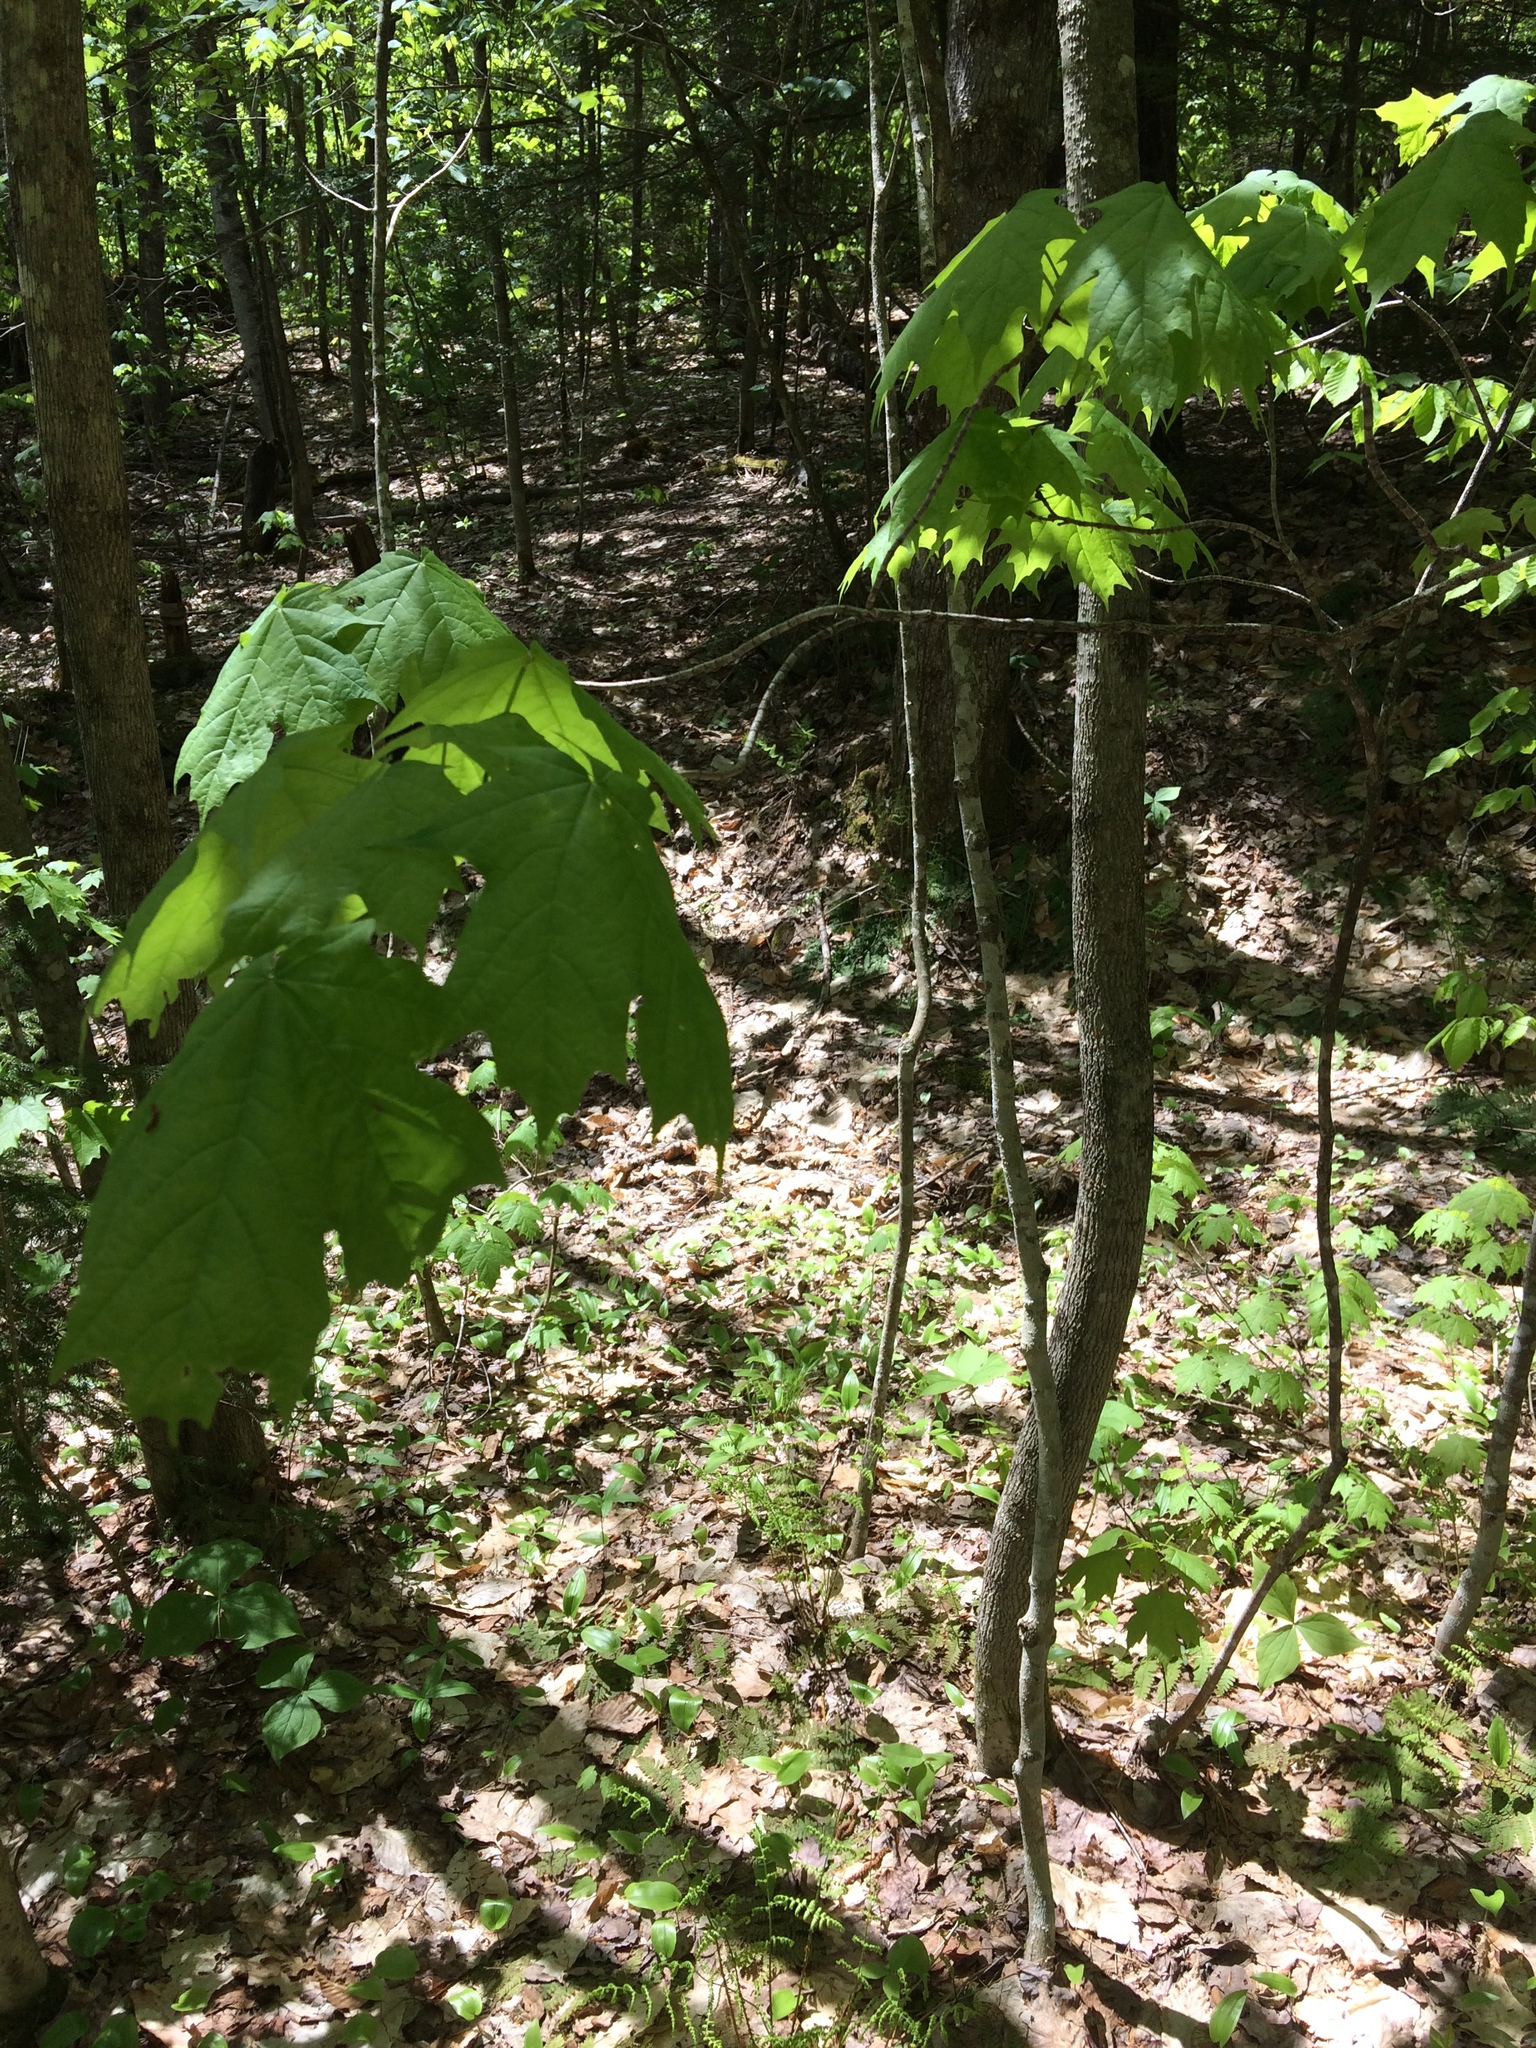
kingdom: Plantae
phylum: Tracheophyta
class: Magnoliopsida
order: Sapindales
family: Sapindaceae
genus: Acer
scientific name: Acer saccharum
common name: Sugar maple
